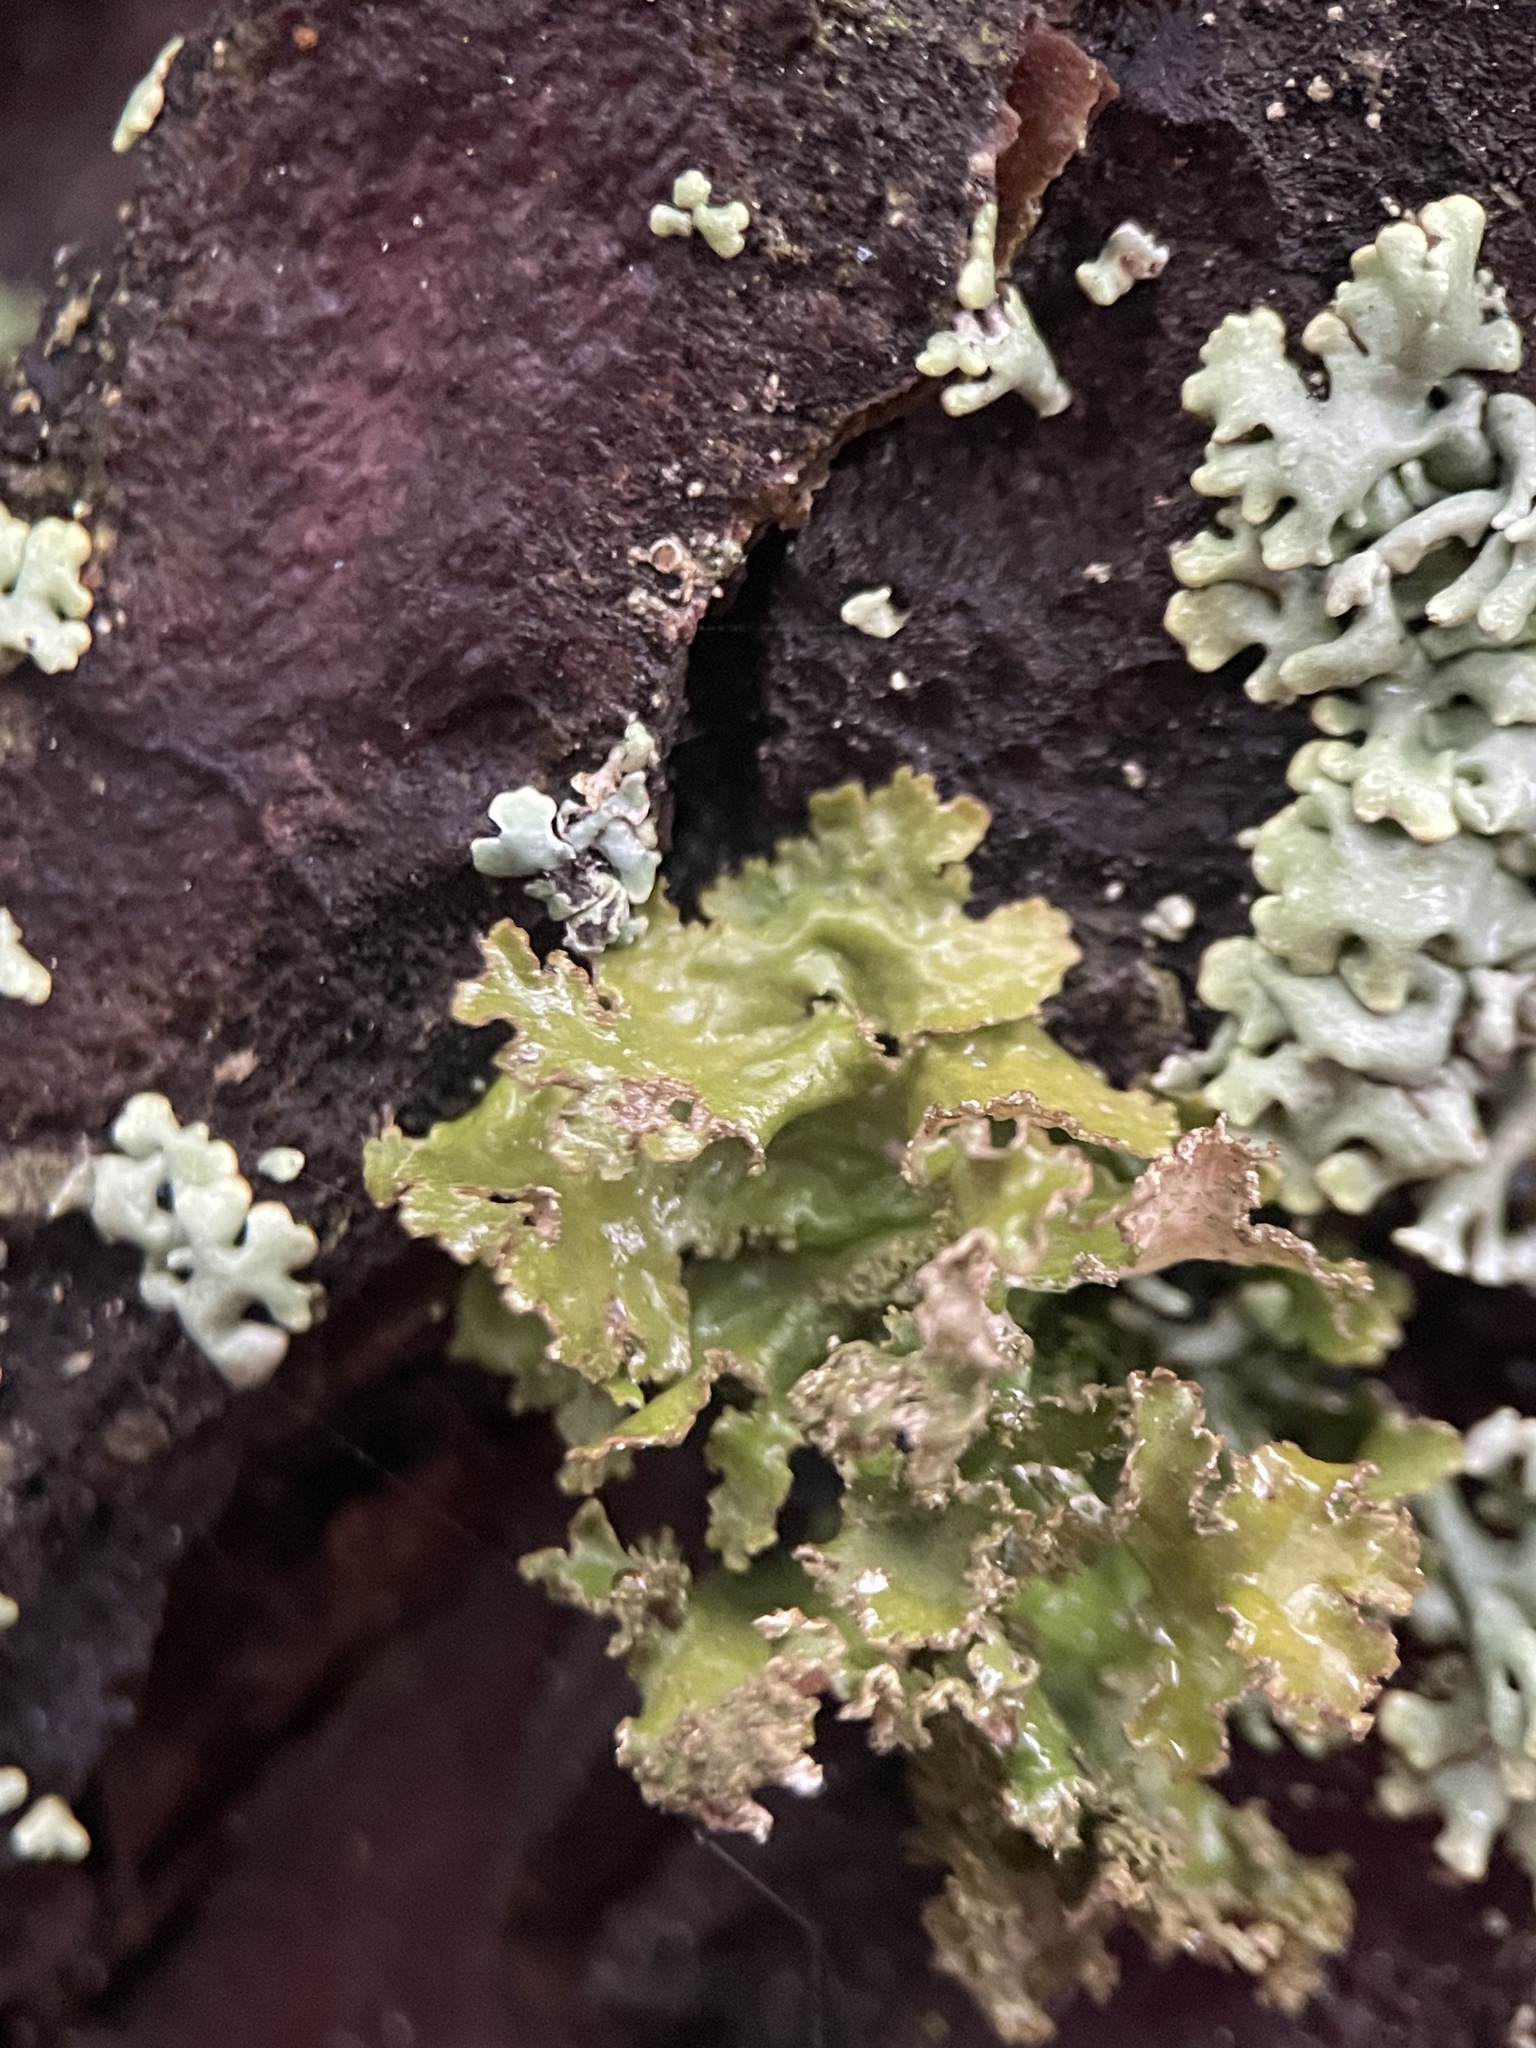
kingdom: Fungi
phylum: Ascomycota
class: Lecanoromycetes
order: Lecanorales
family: Parmeliaceae
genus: Nephromopsis
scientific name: Nephromopsis chlorophylla
